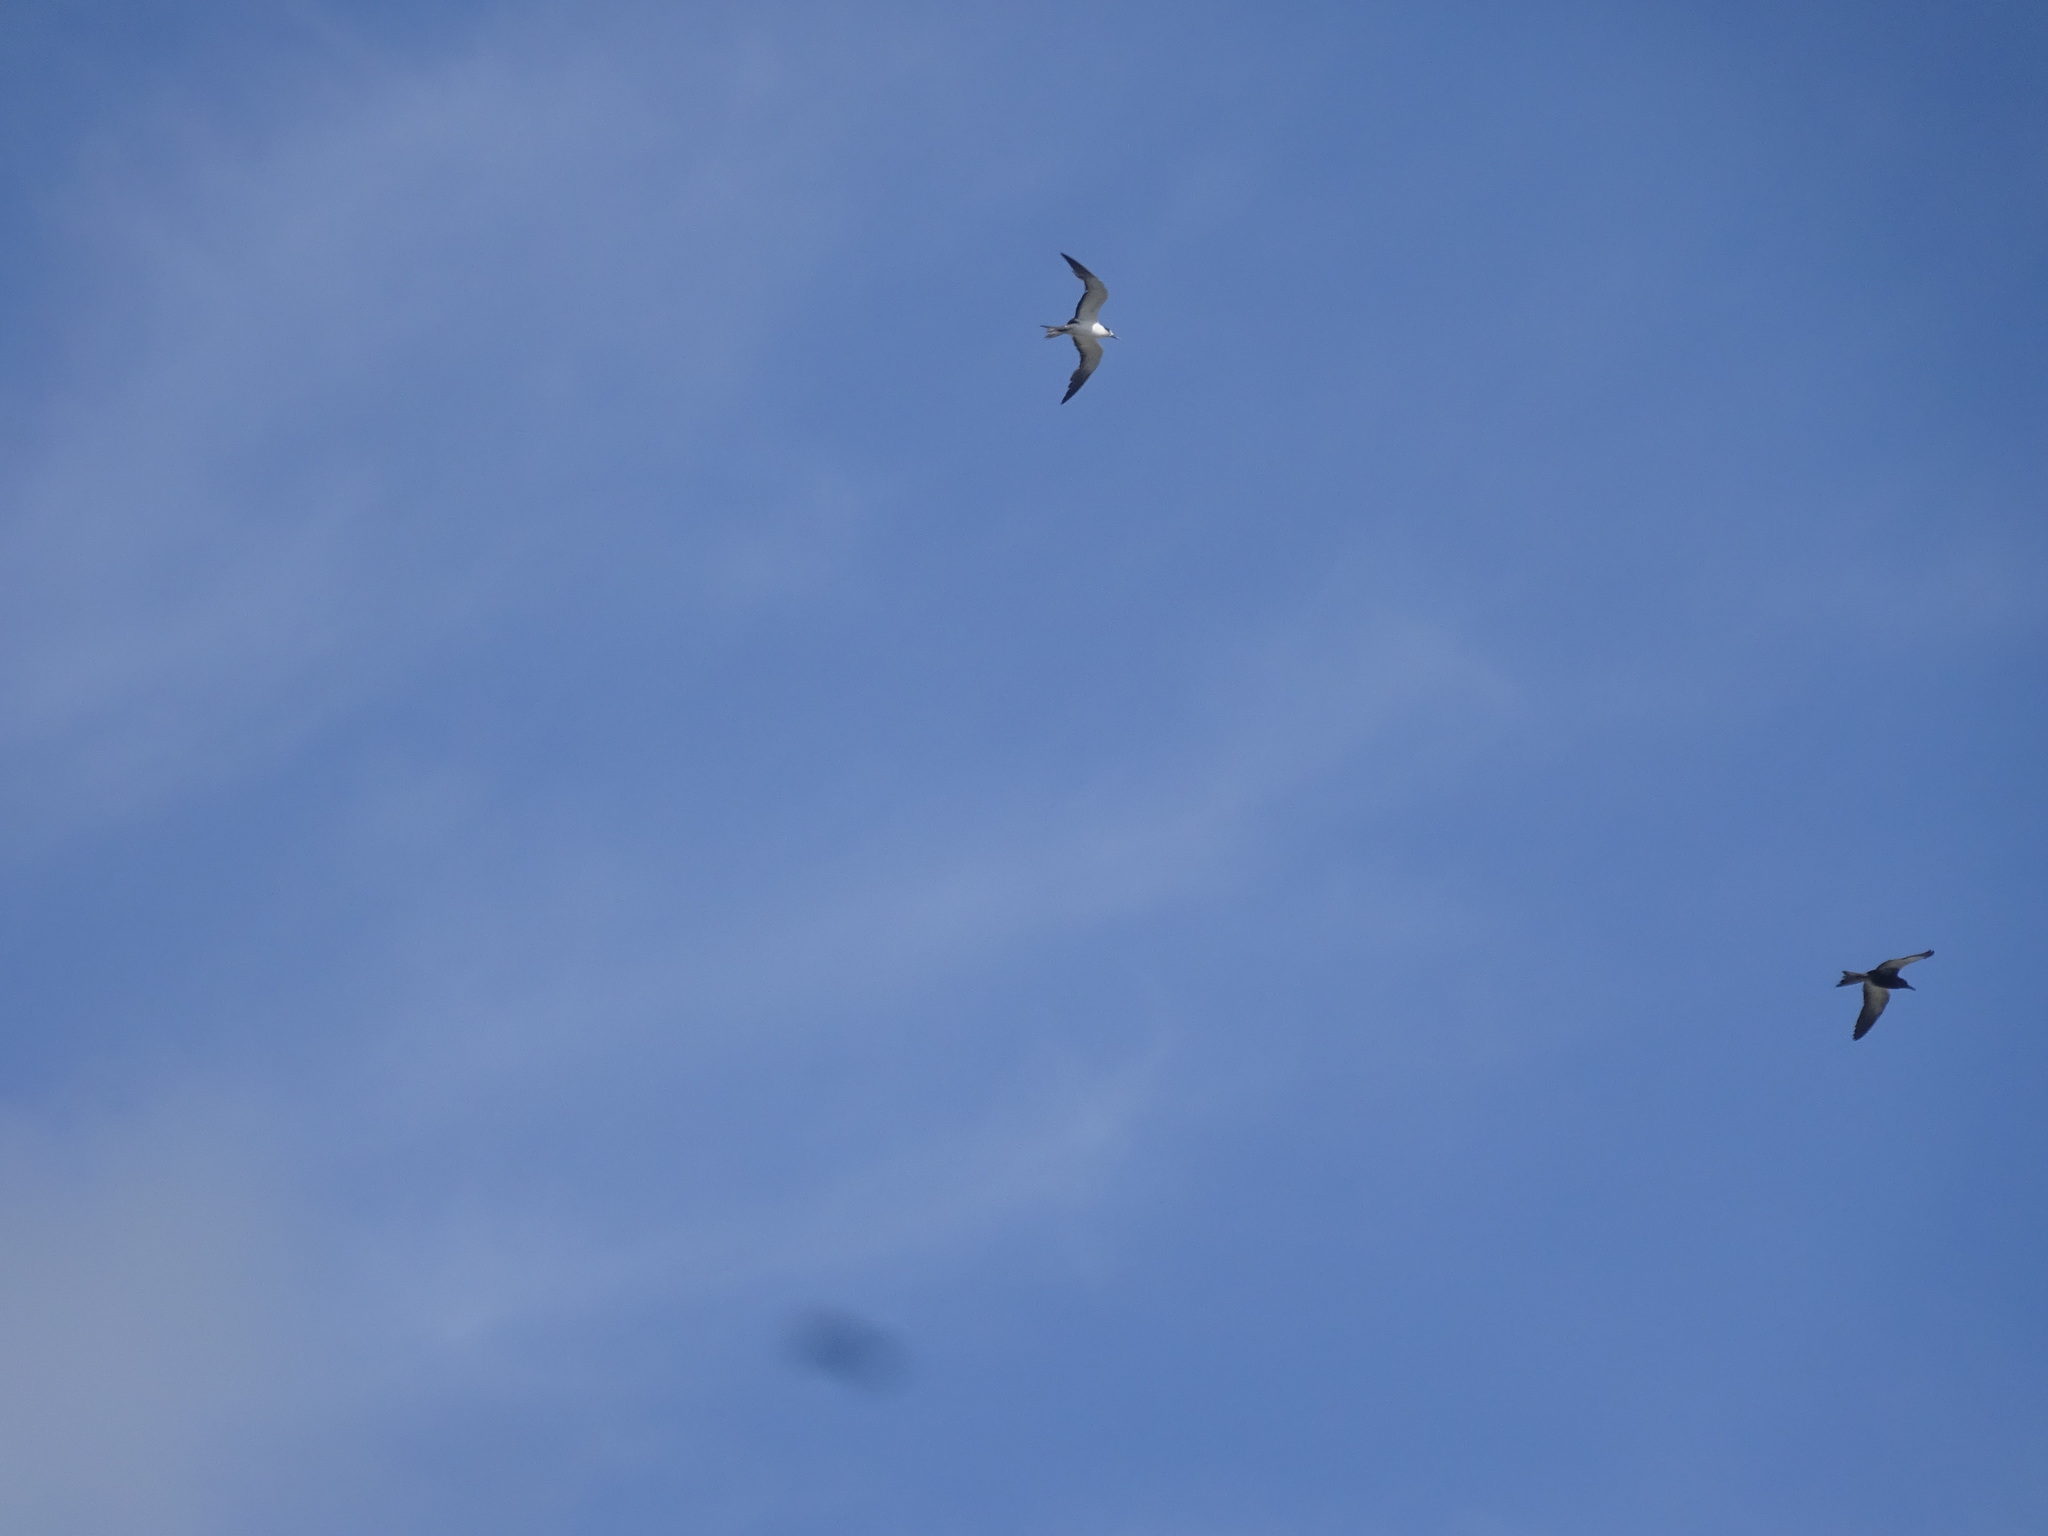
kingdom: Animalia
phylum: Chordata
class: Aves
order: Charadriiformes
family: Laridae
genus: Onychoprion
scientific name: Onychoprion fuscatus
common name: Sooty tern
